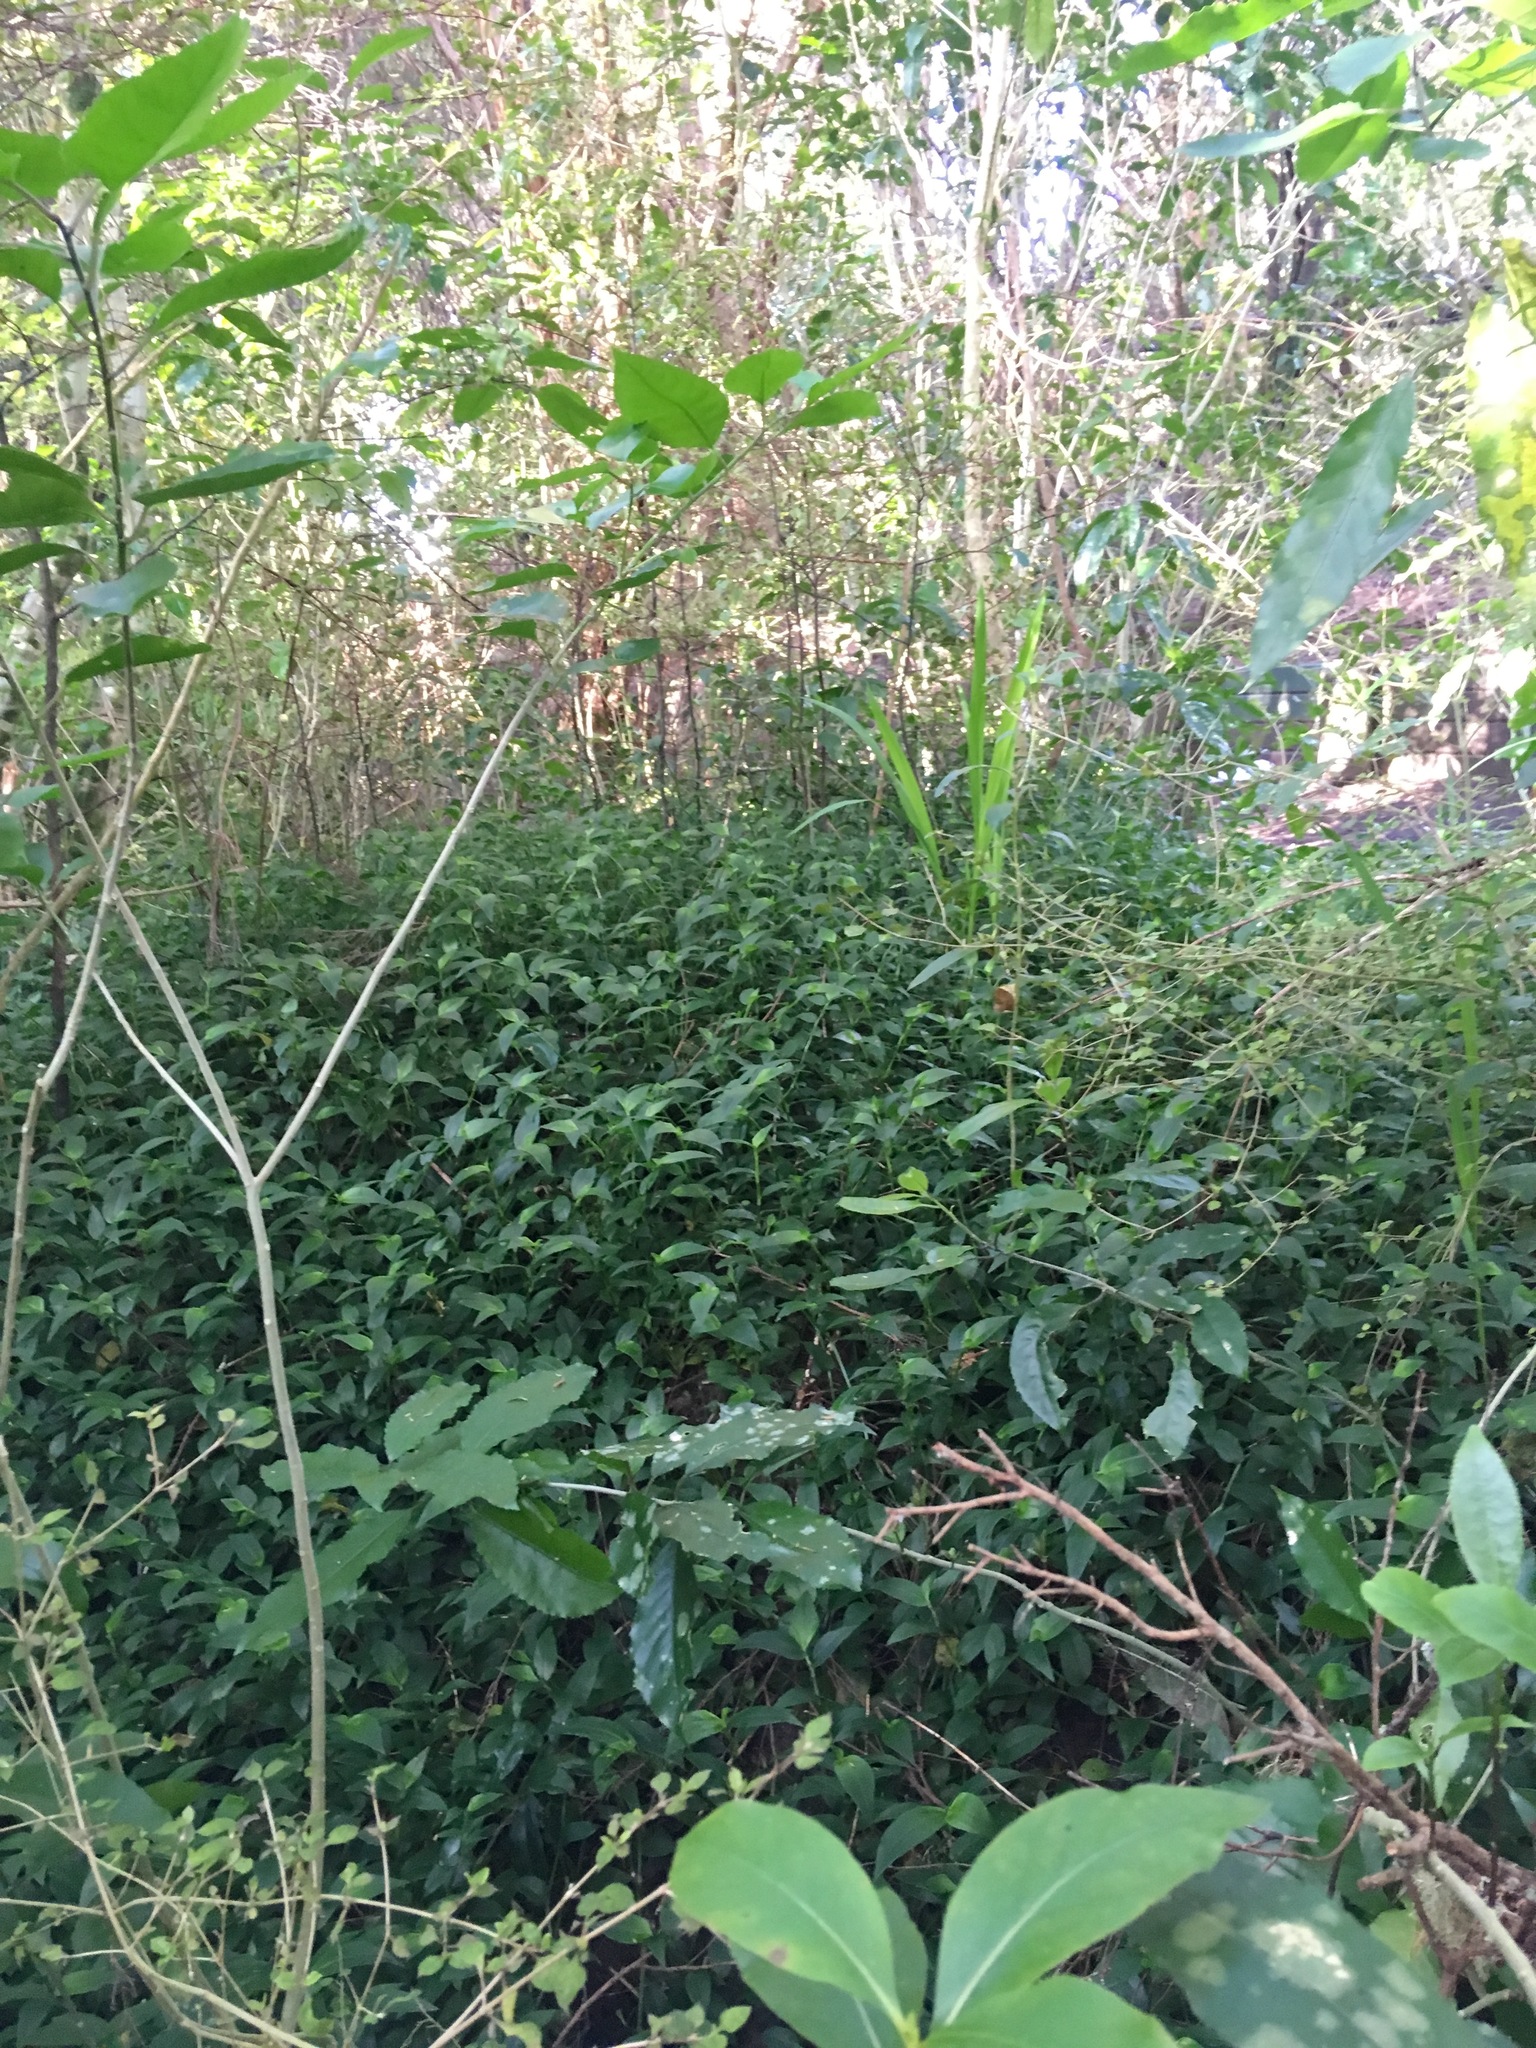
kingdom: Plantae
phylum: Tracheophyta
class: Liliopsida
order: Commelinales
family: Commelinaceae
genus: Tradescantia
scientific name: Tradescantia fluminensis
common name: Wandering-jew
